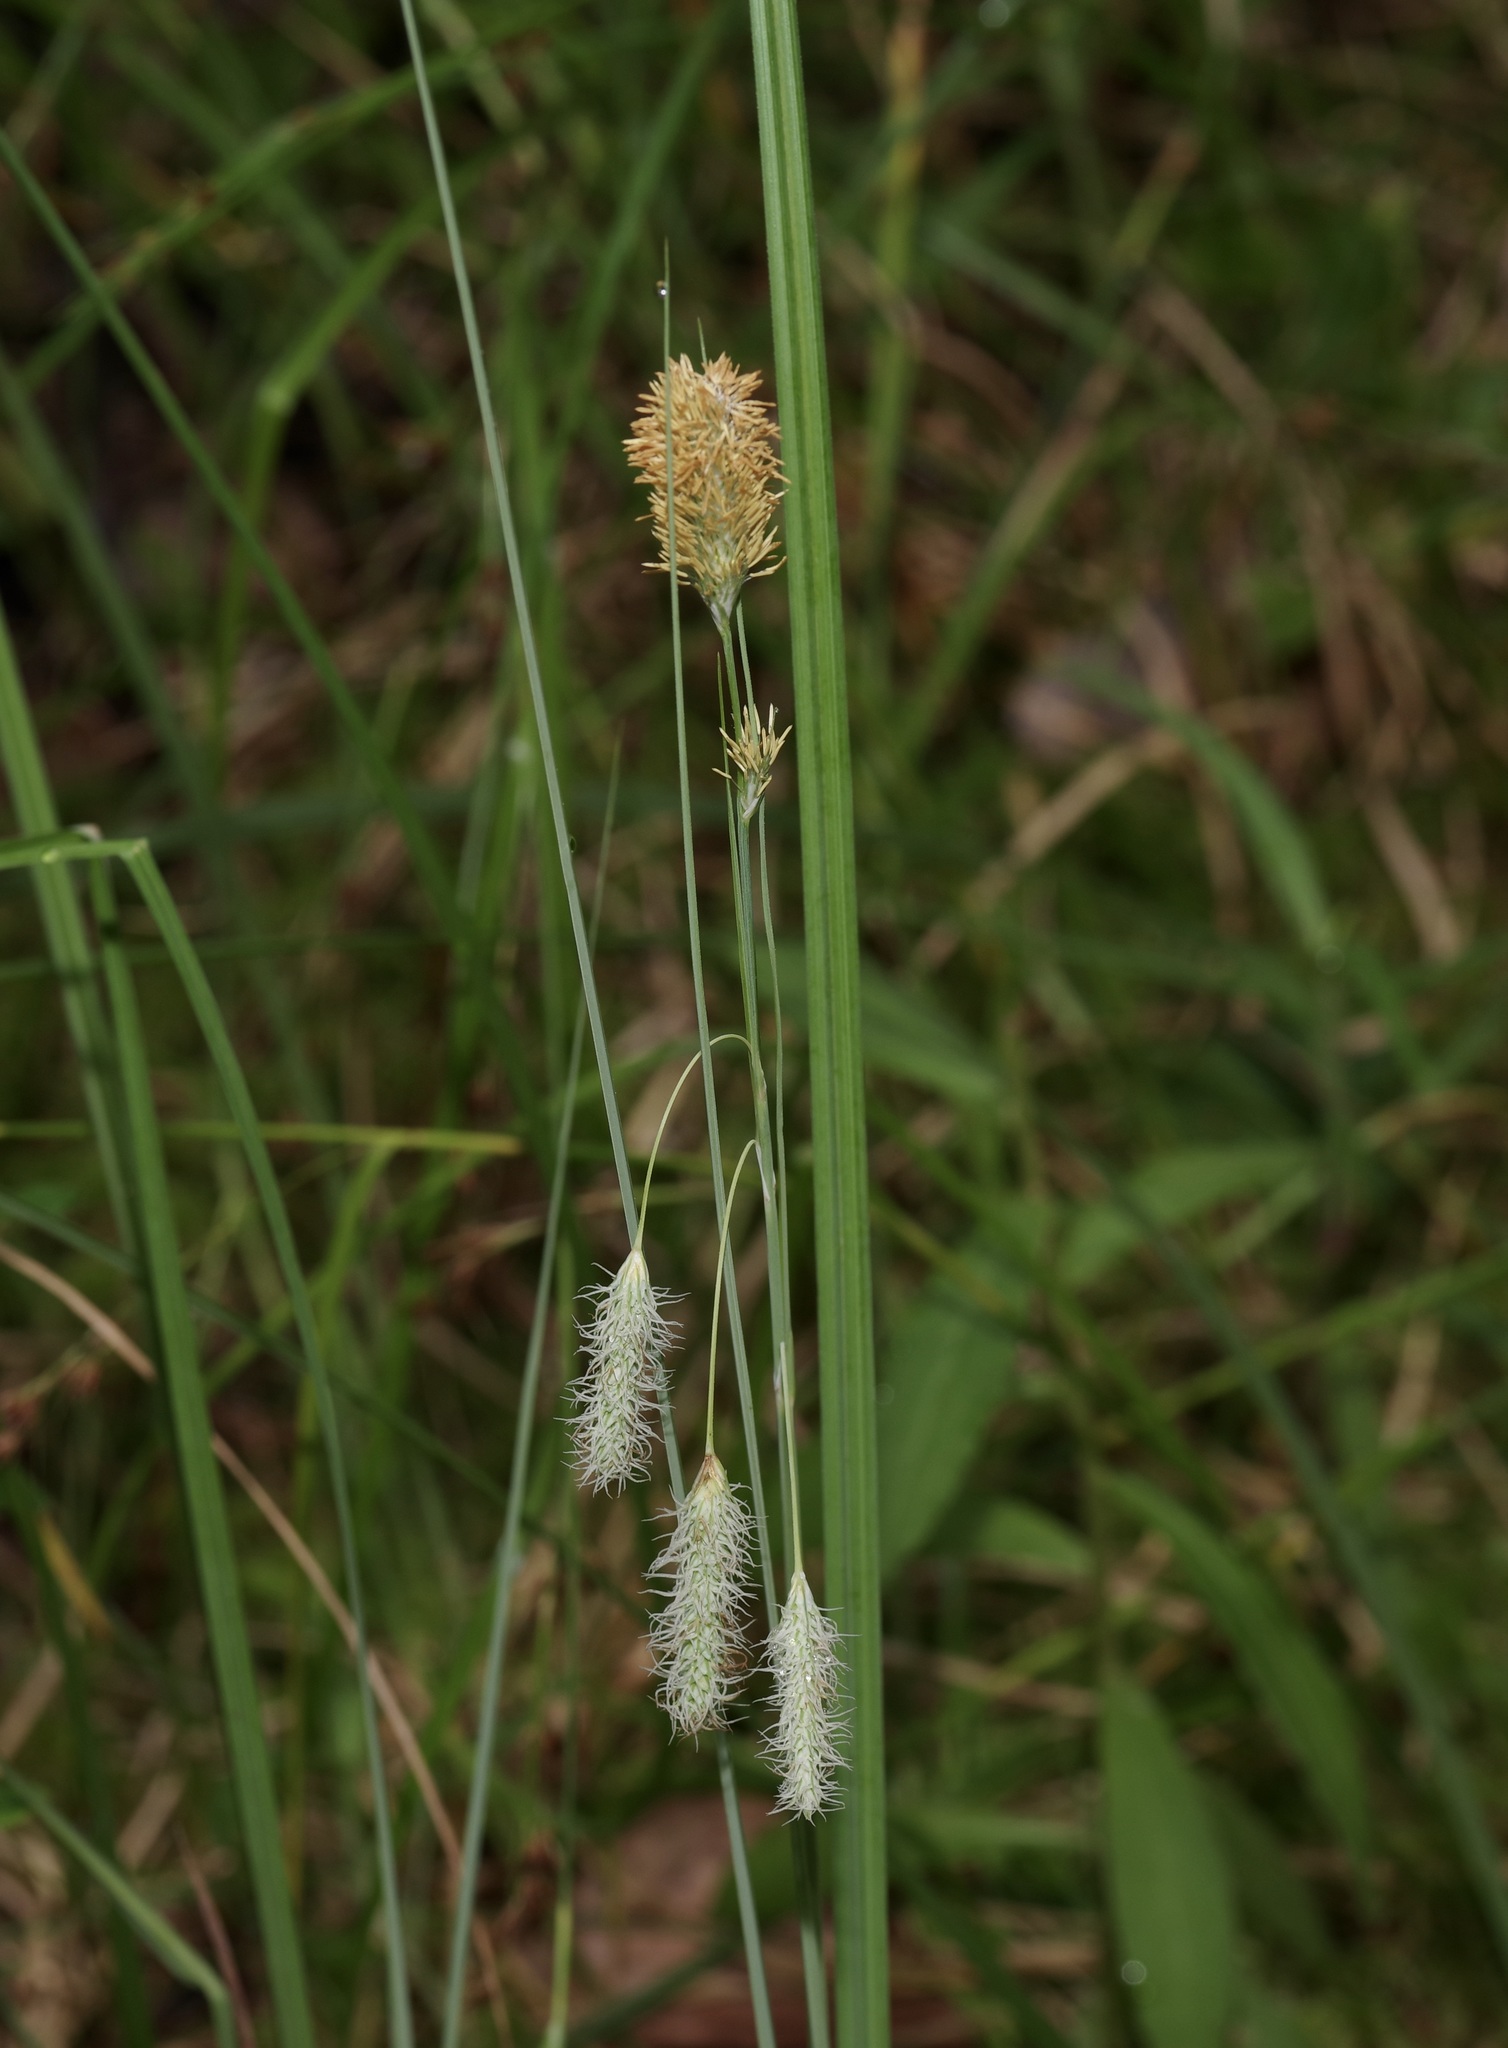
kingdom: Plantae
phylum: Tracheophyta
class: Liliopsida
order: Poales
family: Cyperaceae
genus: Carex
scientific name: Carex glaucescens
